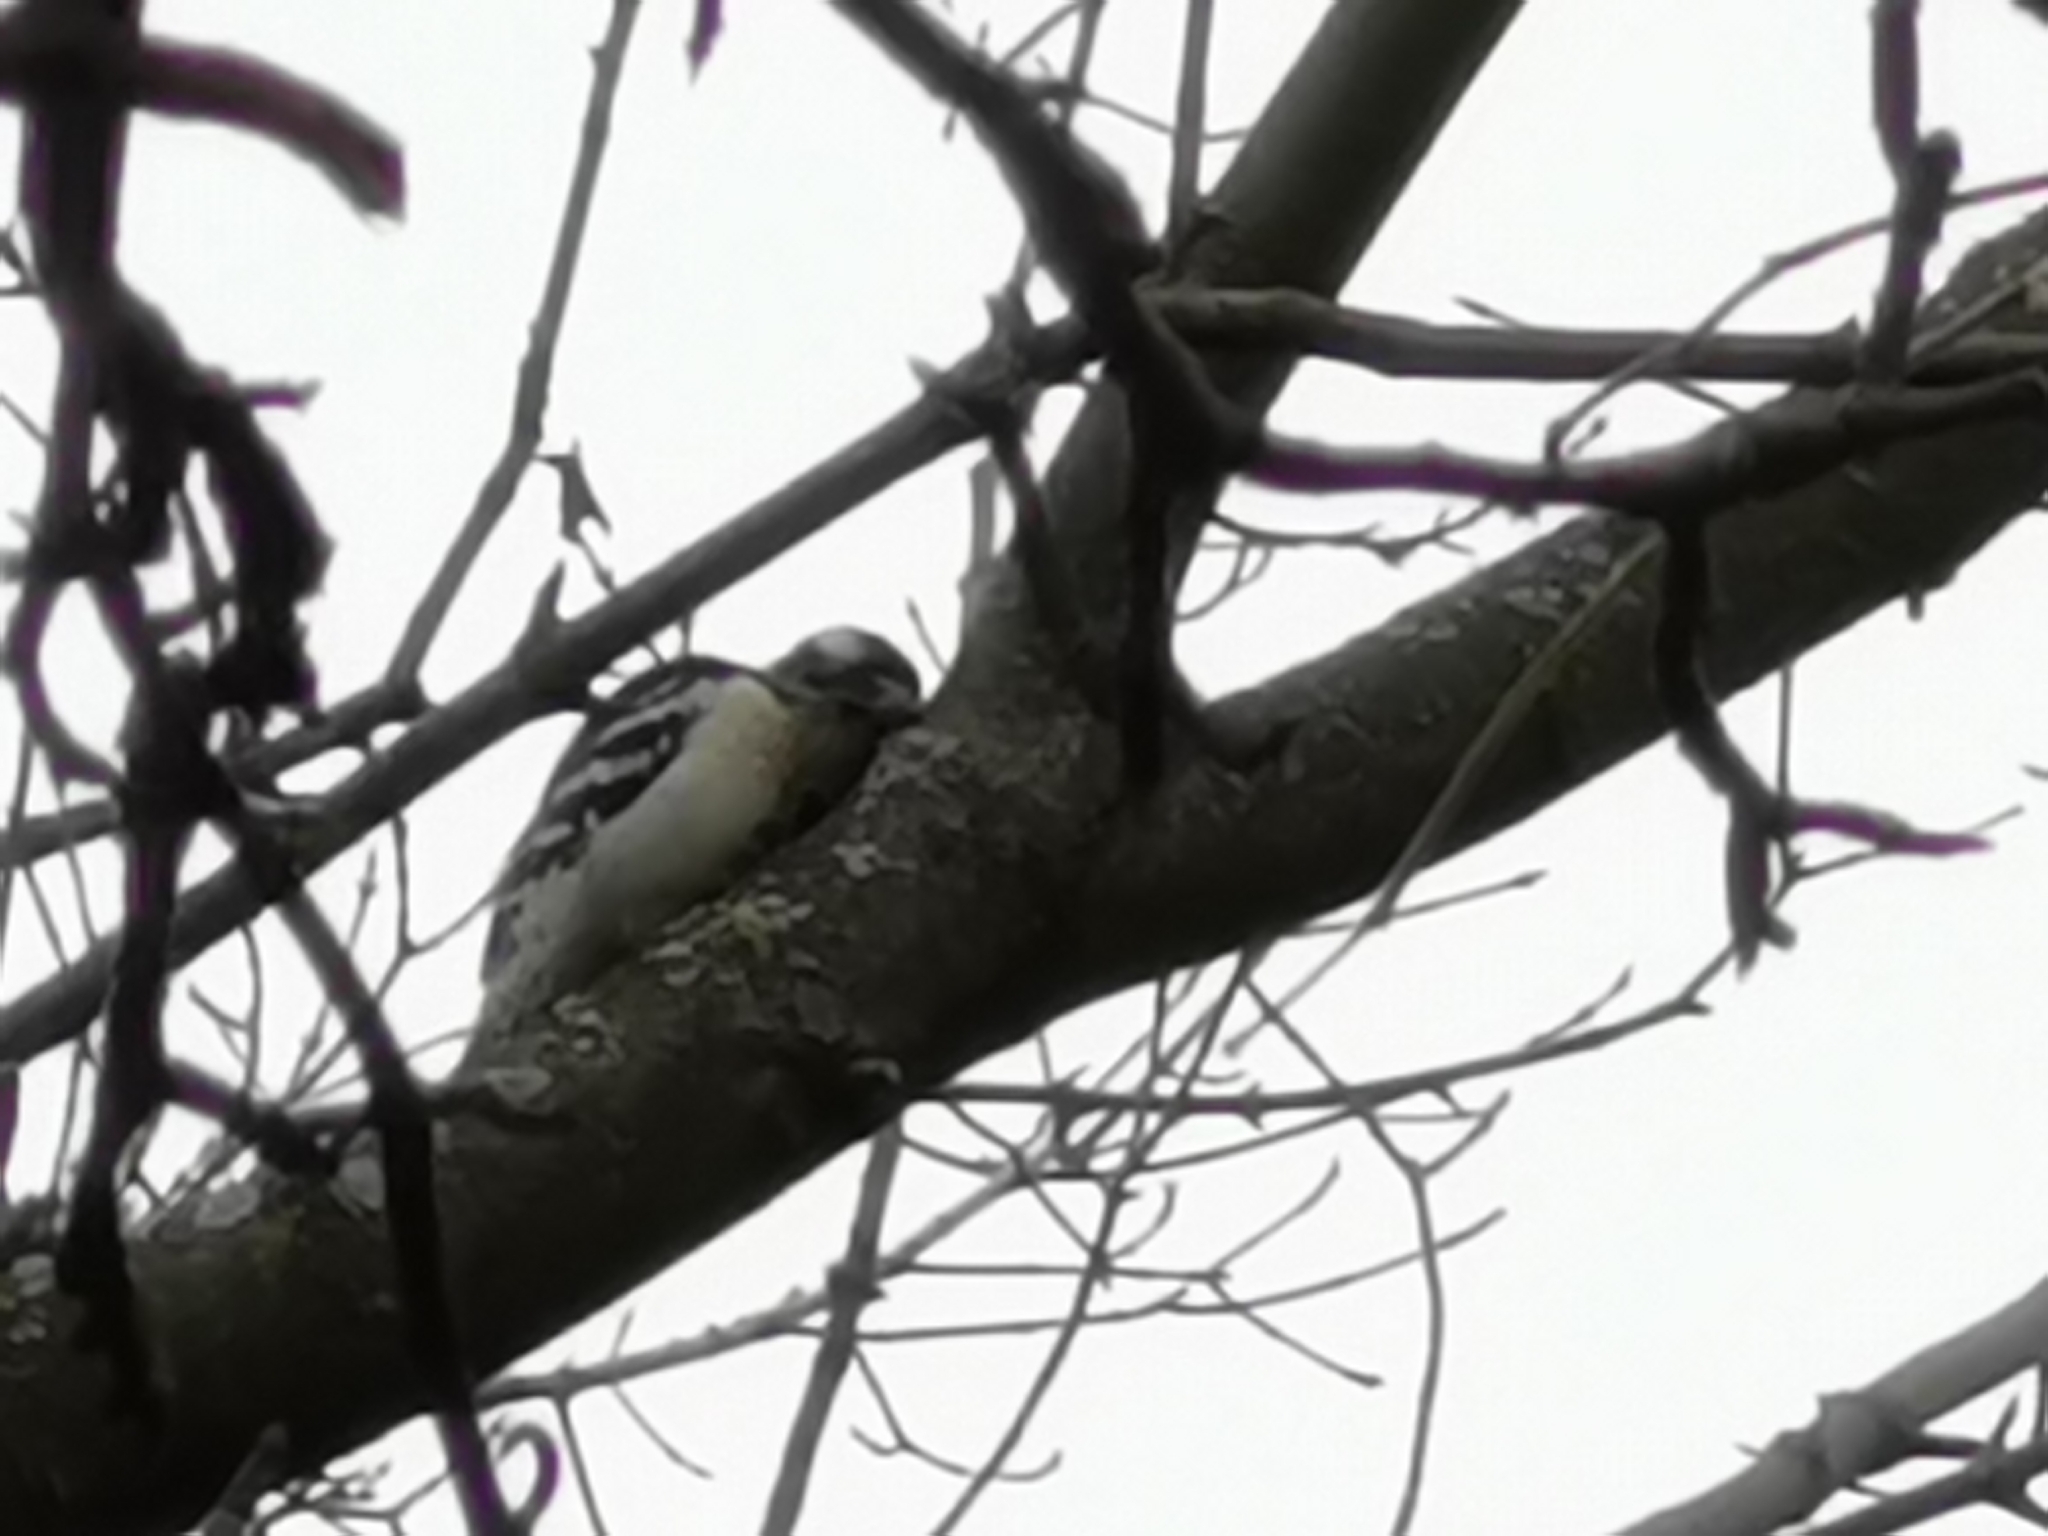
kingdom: Animalia
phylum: Chordata
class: Aves
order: Piciformes
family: Picidae
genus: Dryobates
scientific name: Dryobates pubescens
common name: Downy woodpecker
